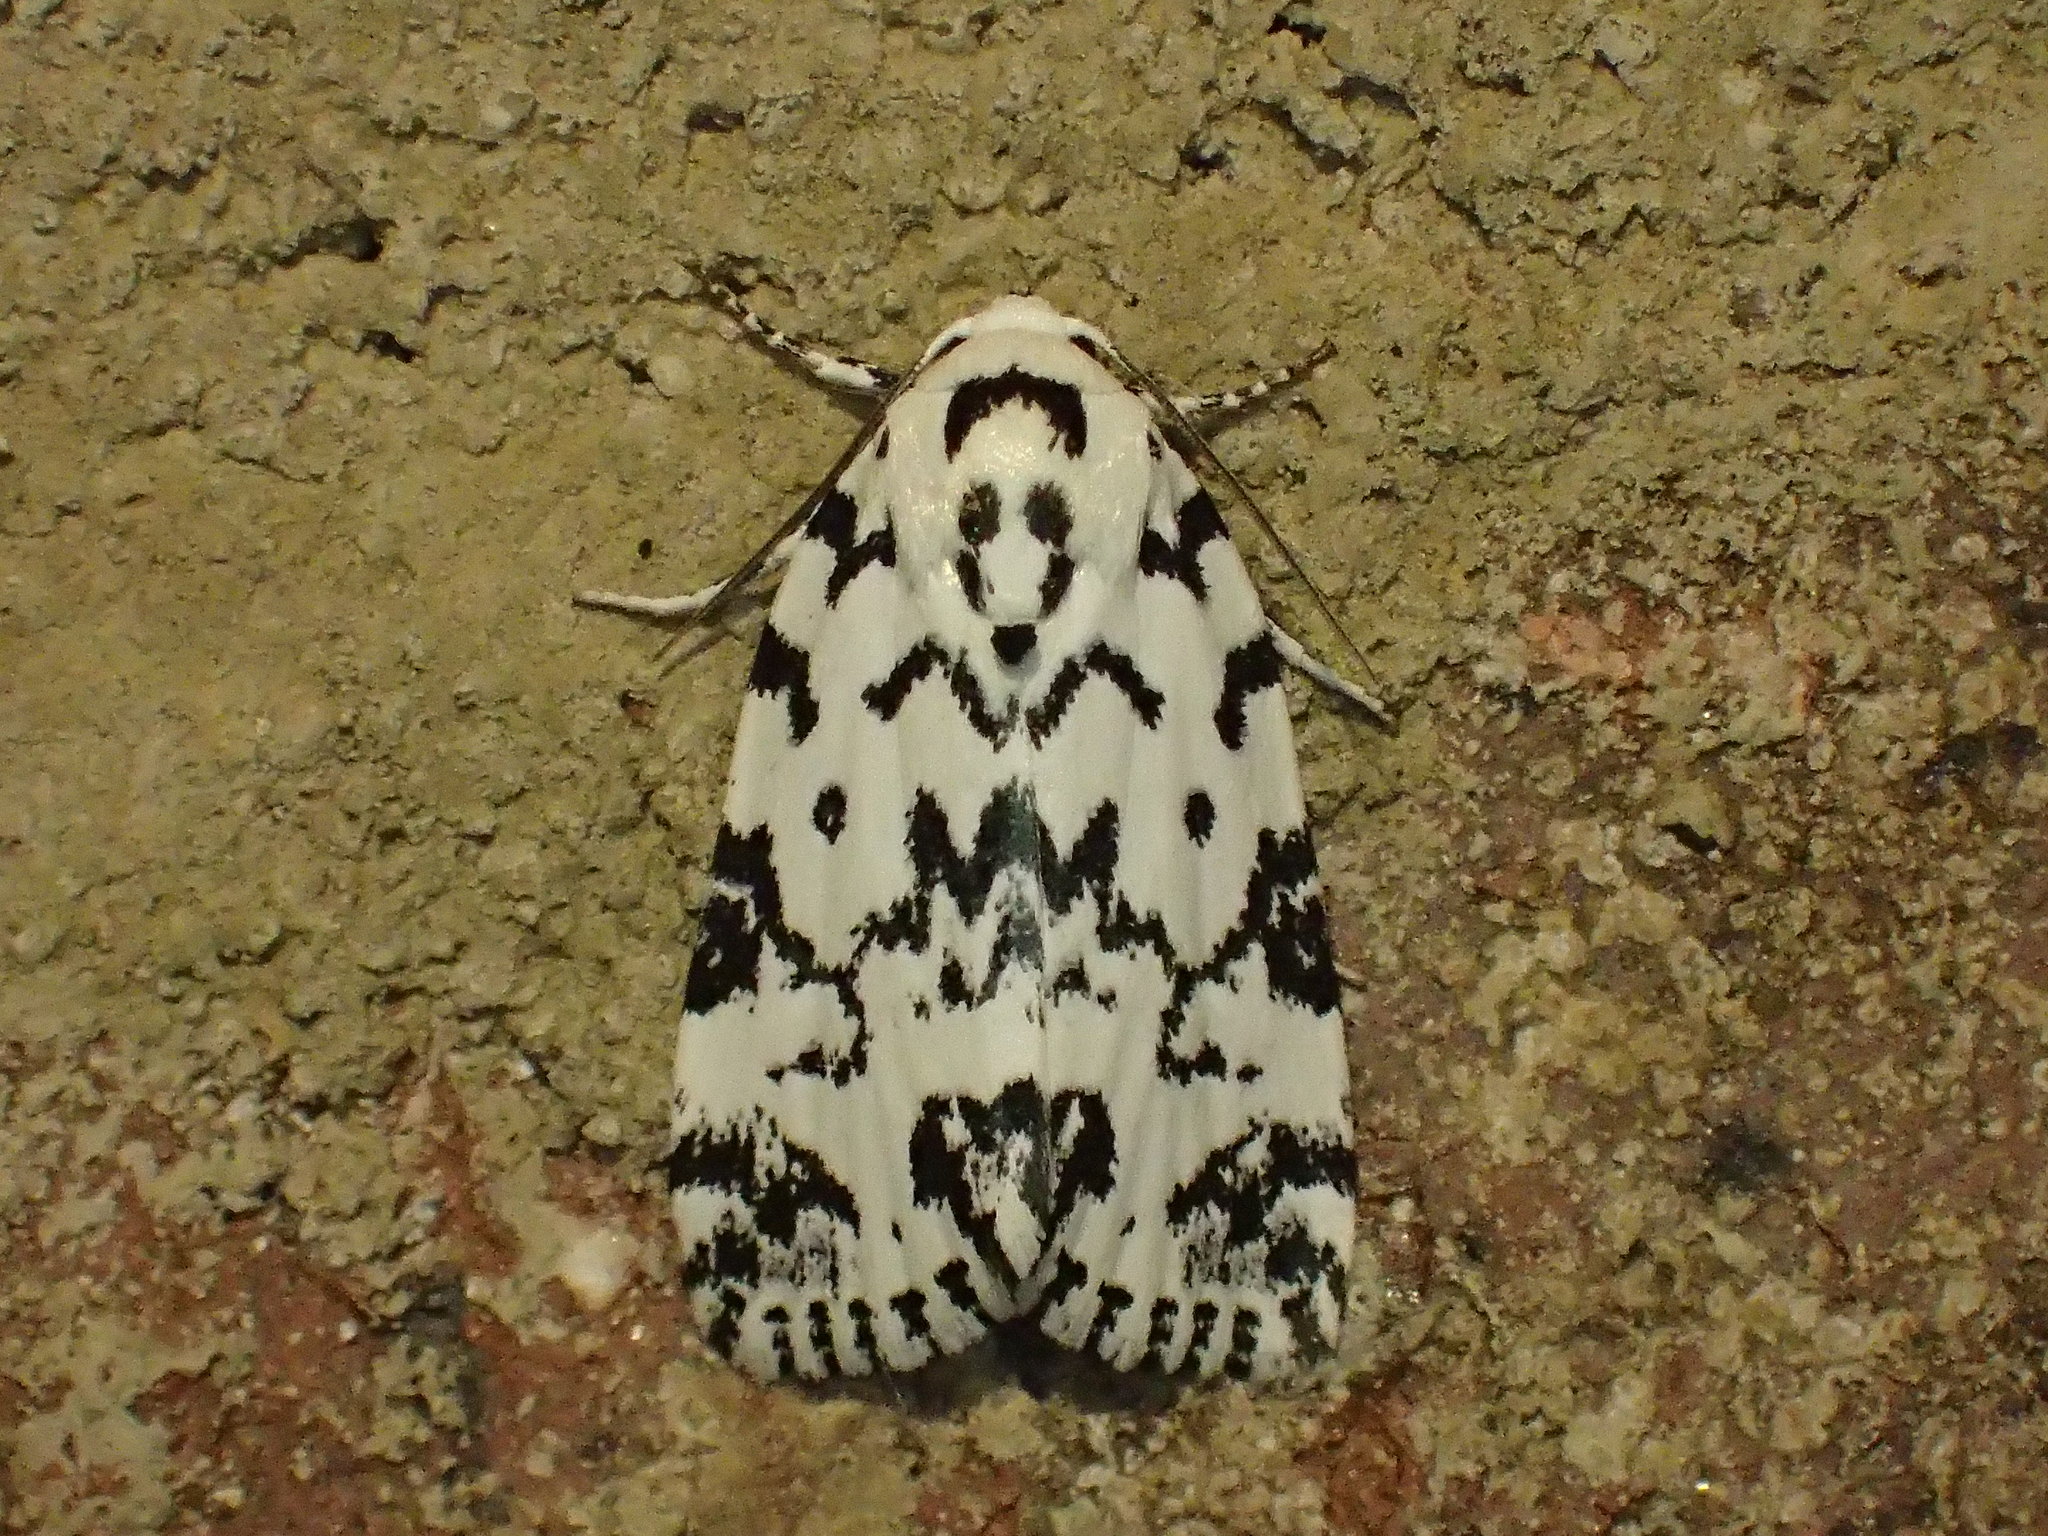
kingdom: Animalia
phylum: Arthropoda
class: Insecta
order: Lepidoptera
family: Noctuidae
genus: Polygrammate
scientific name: Polygrammate hebraeicum
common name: Hebrew moth
